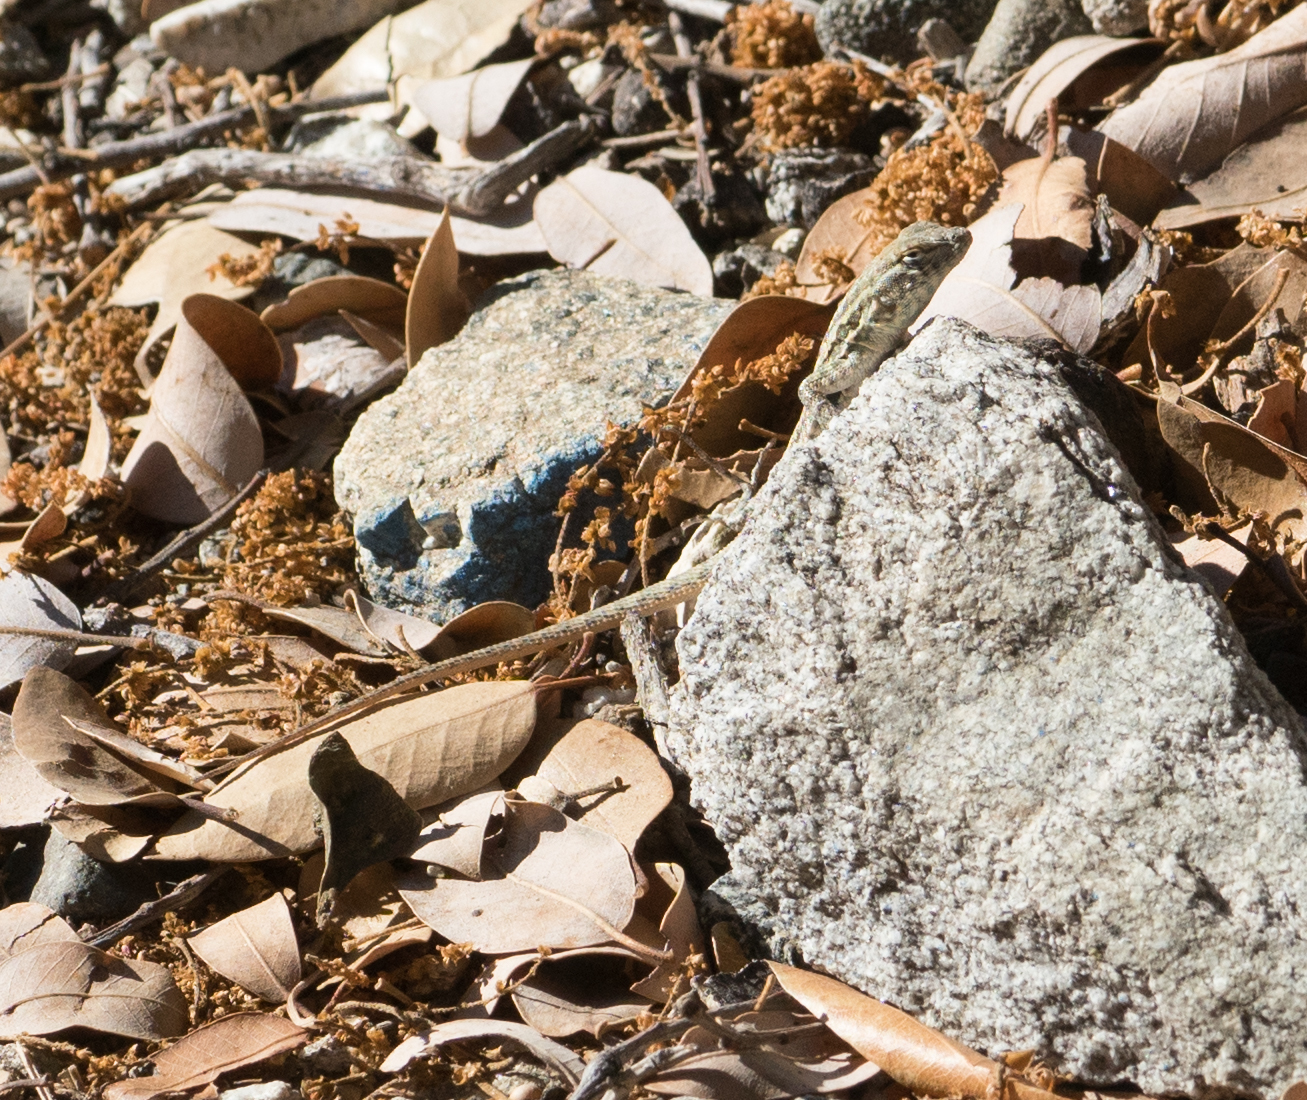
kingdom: Animalia
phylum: Chordata
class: Squamata
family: Phrynosomatidae
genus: Uta
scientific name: Uta stansburiana
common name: Side-blotched lizard
